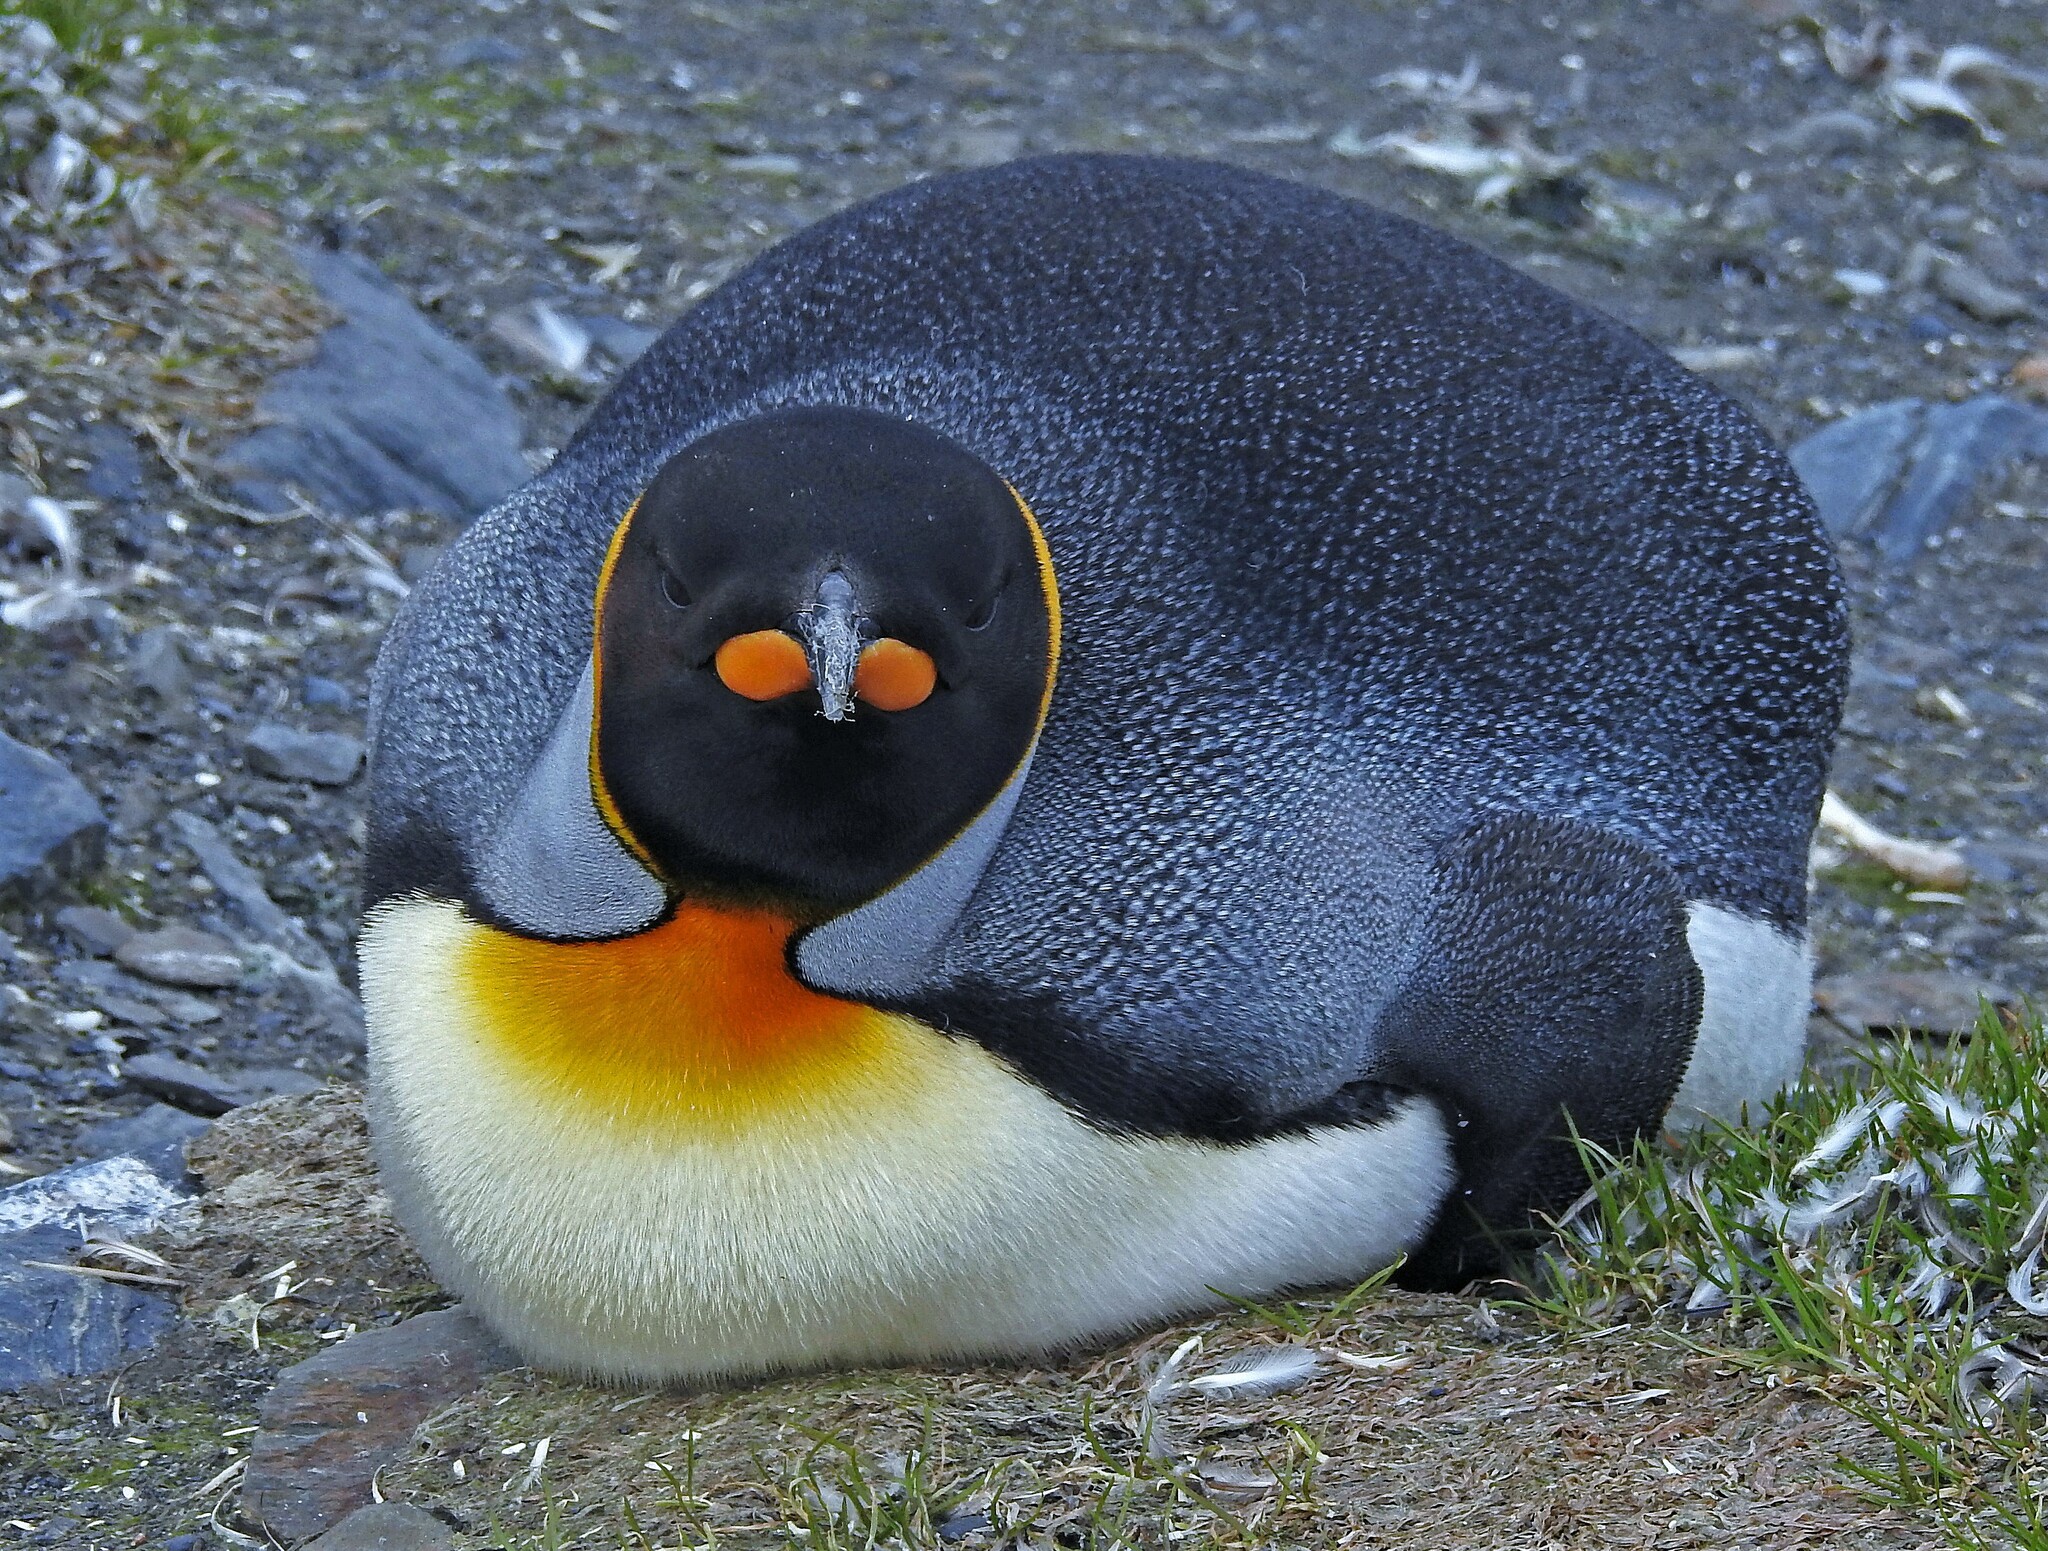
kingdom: Animalia
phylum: Chordata
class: Aves
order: Sphenisciformes
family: Spheniscidae
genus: Aptenodytes
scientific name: Aptenodytes patagonicus
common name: King penguin
